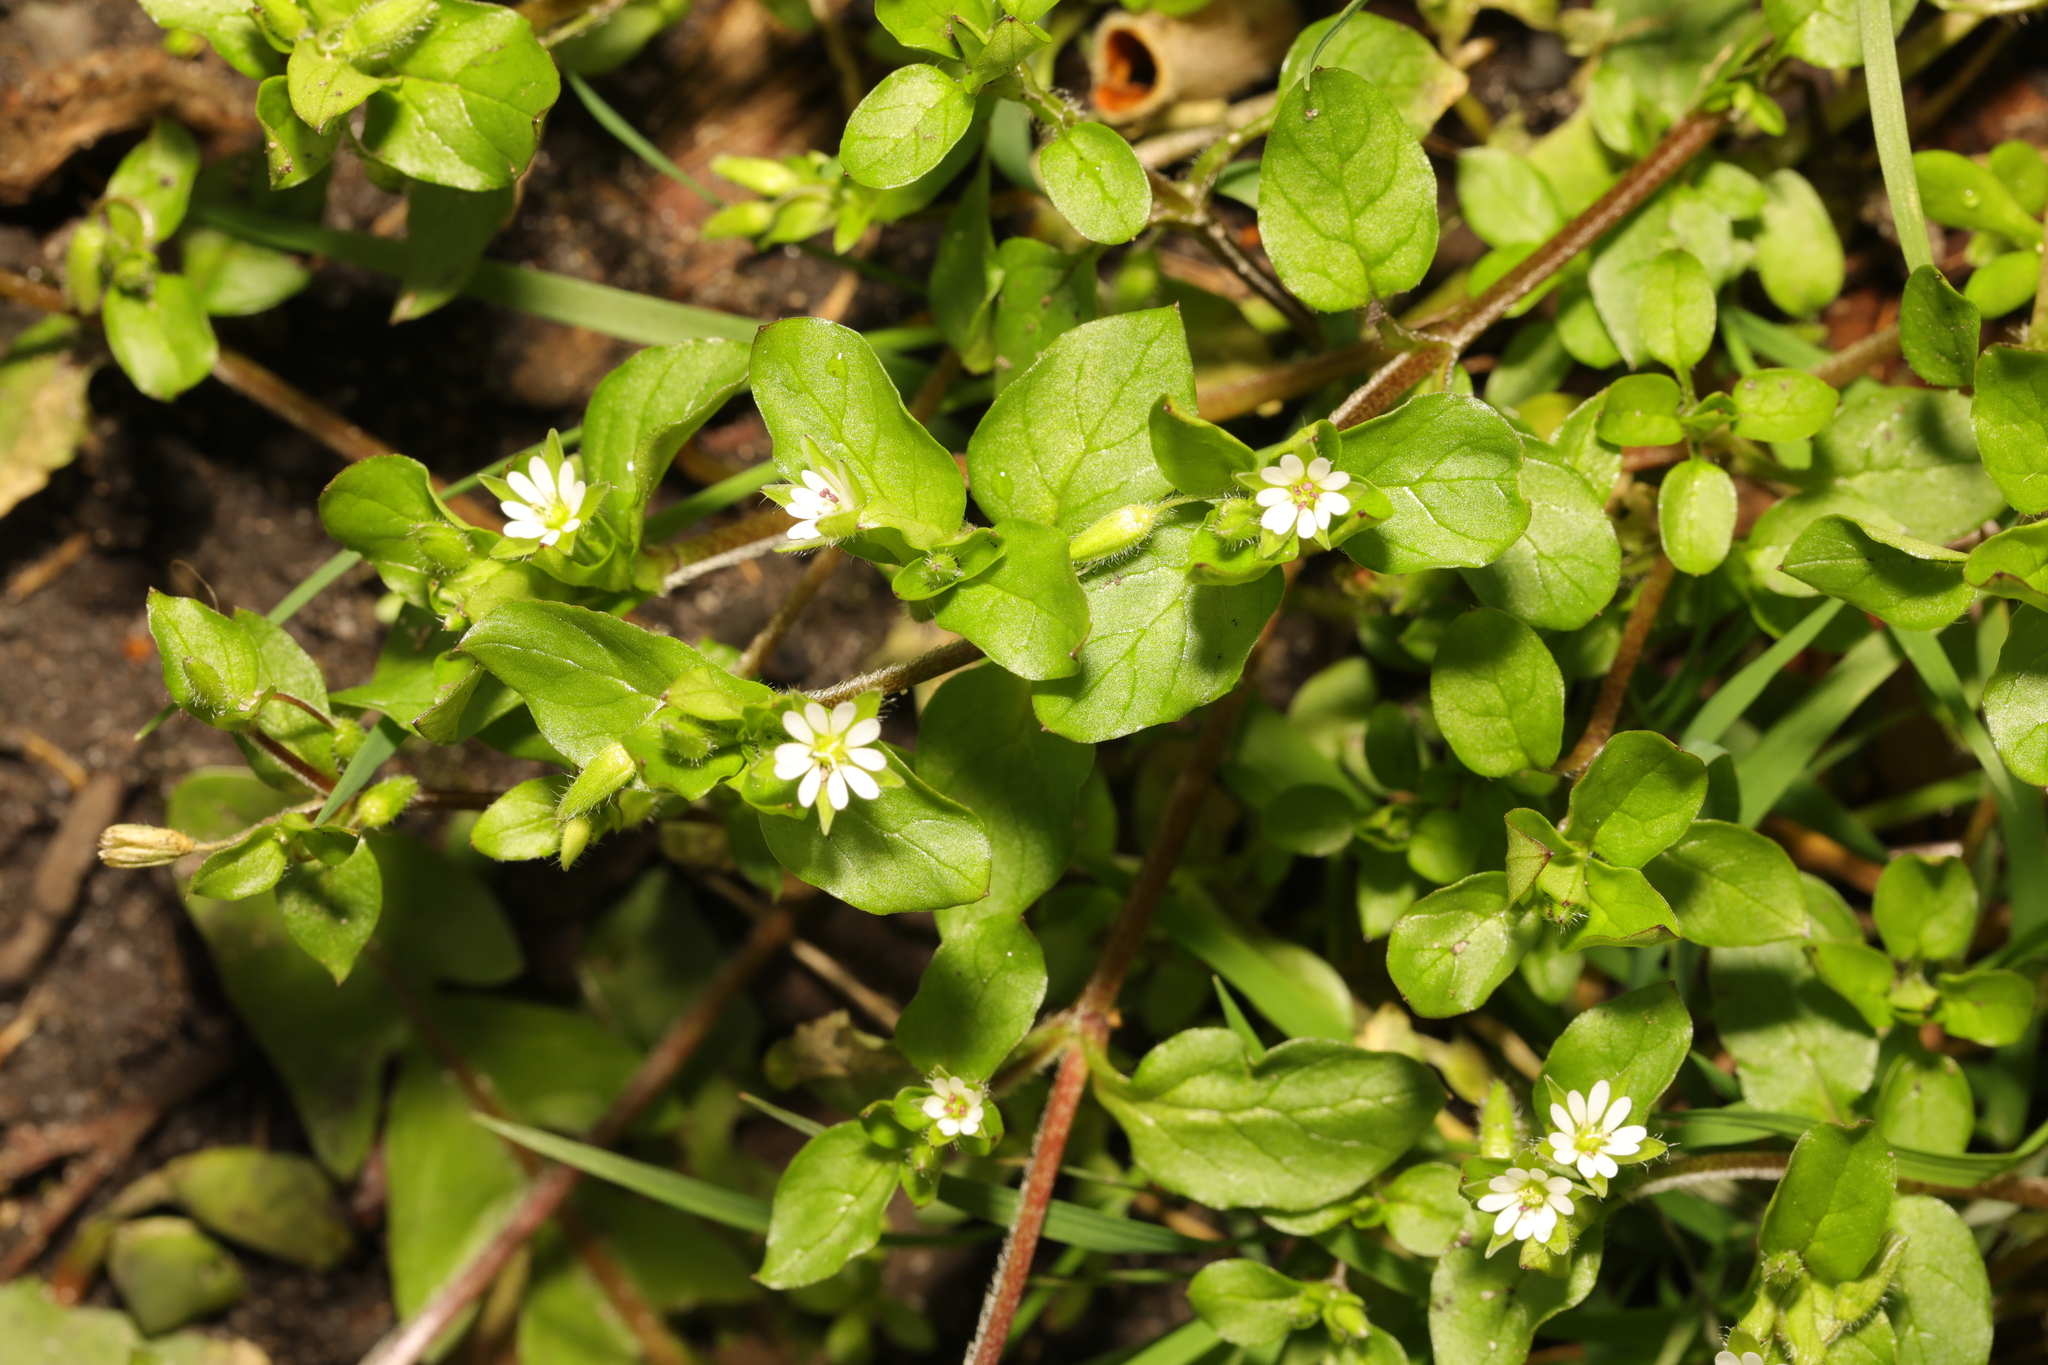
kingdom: Plantae
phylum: Tracheophyta
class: Magnoliopsida
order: Caryophyllales
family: Caryophyllaceae
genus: Stellaria
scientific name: Stellaria media
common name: Common chickweed
